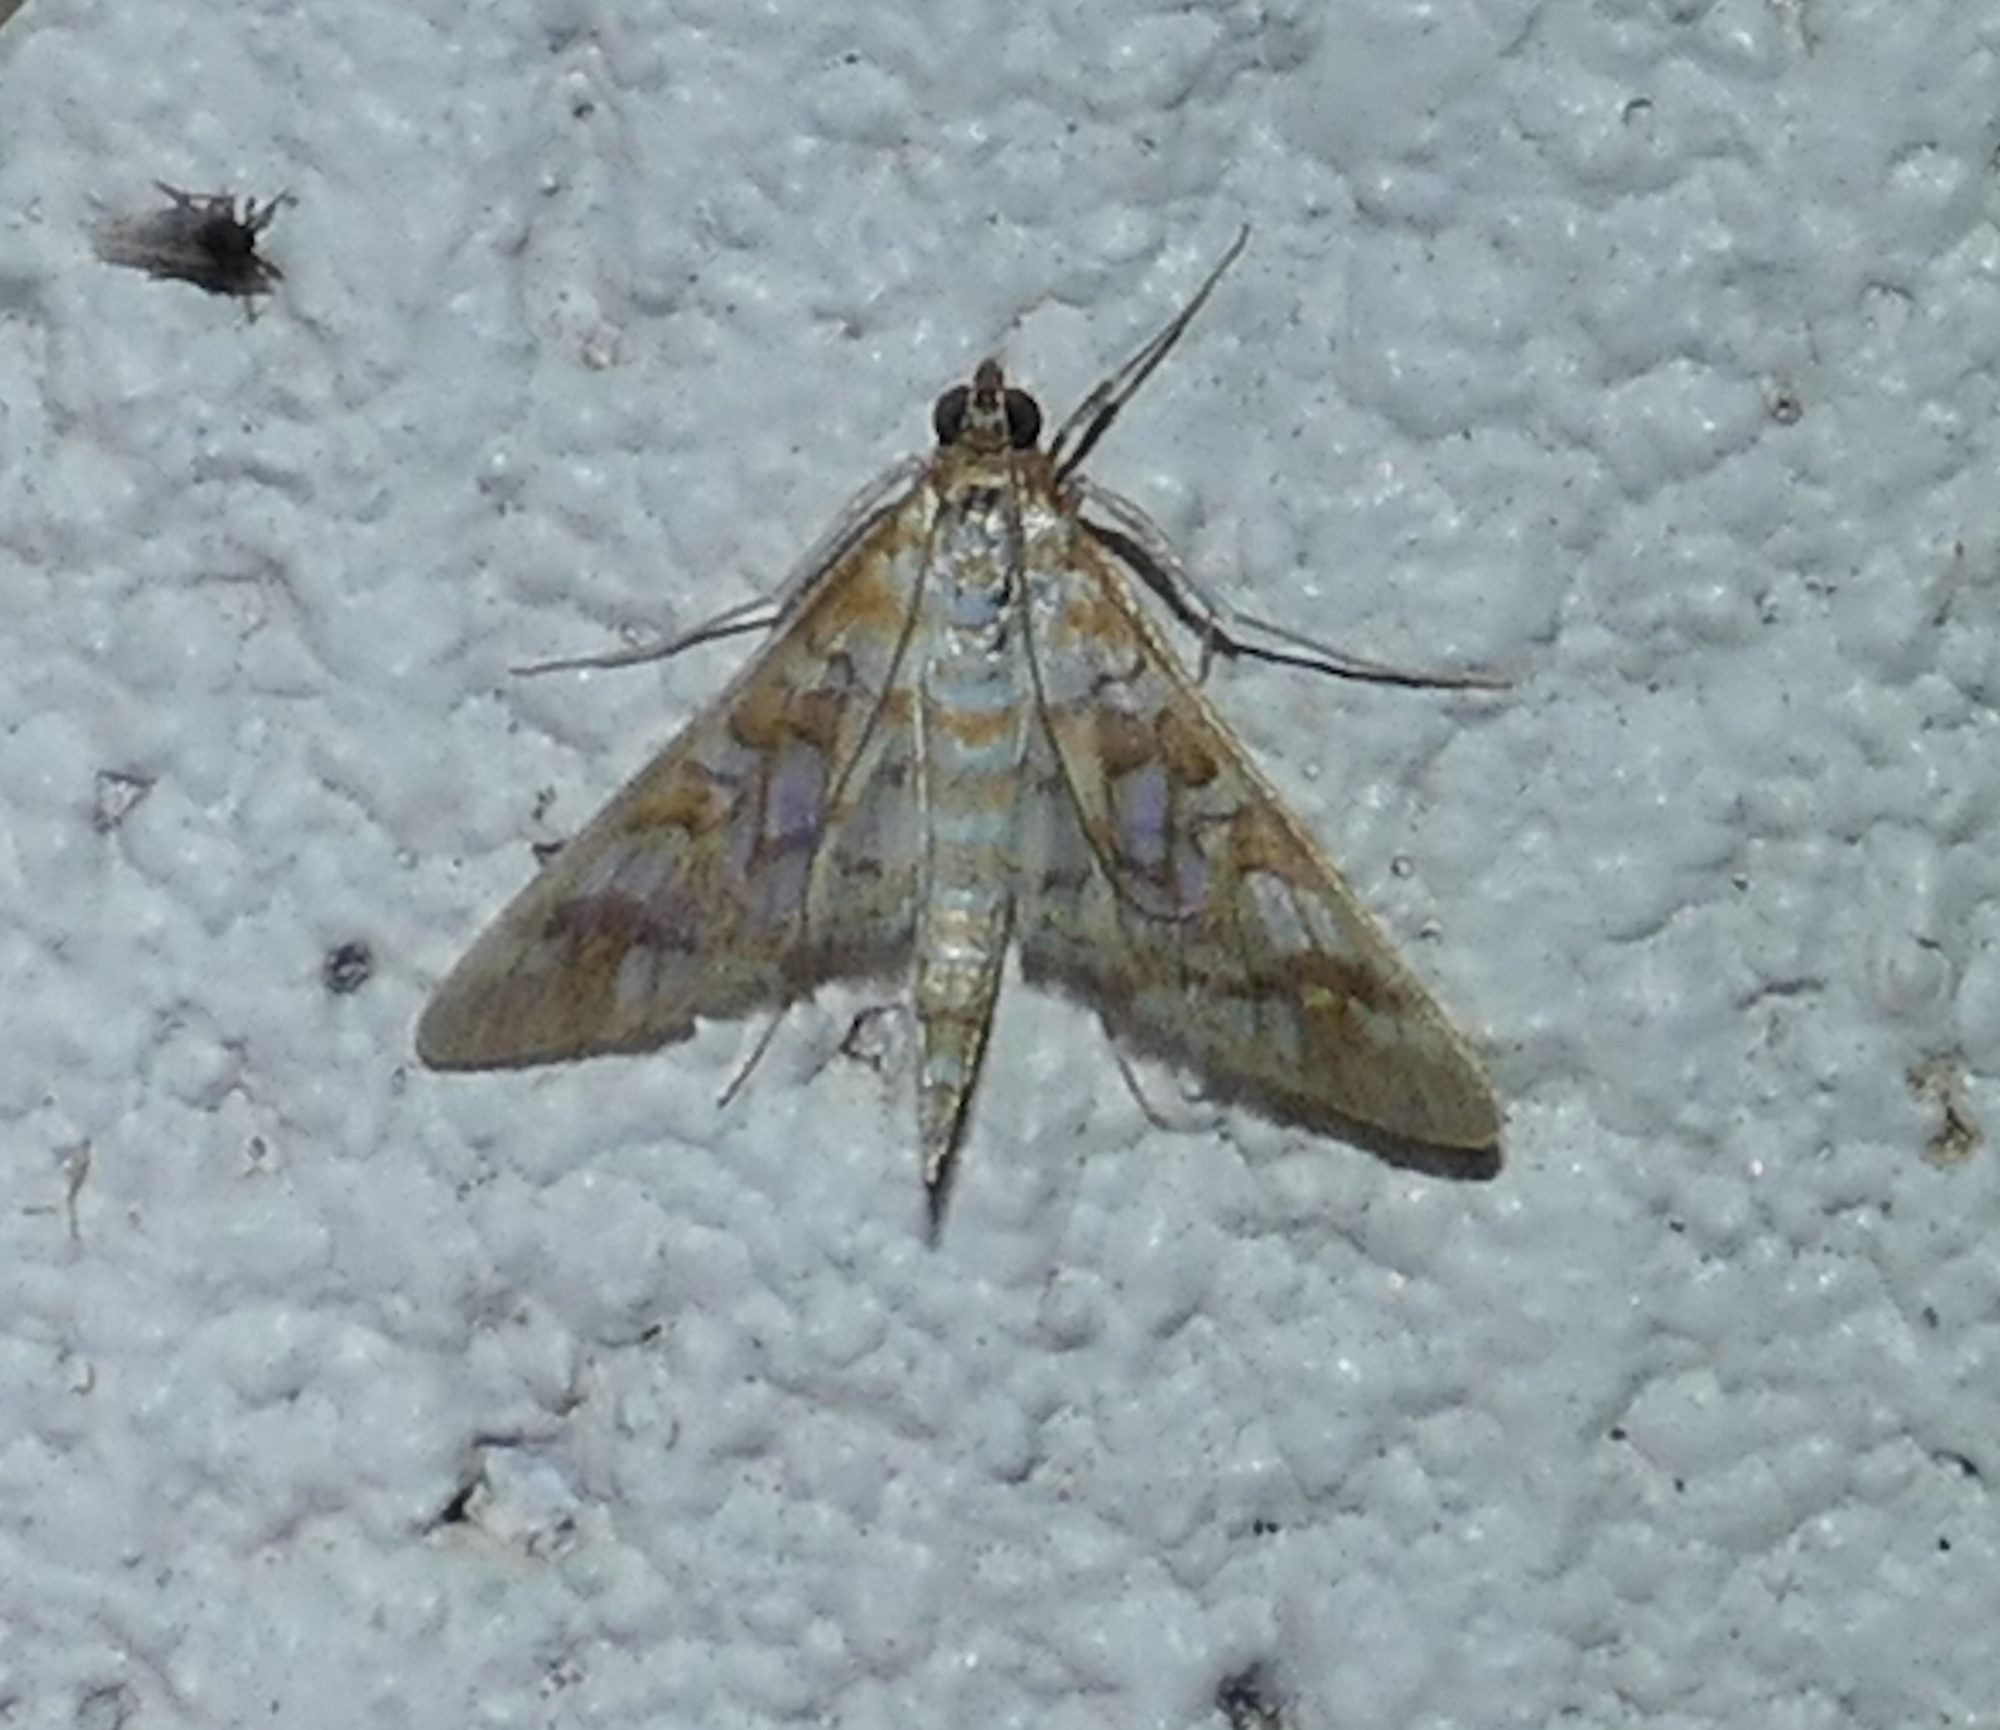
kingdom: Animalia
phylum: Arthropoda
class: Insecta
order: Lepidoptera
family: Crambidae
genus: Epipagis
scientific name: Epipagis fenestralis
